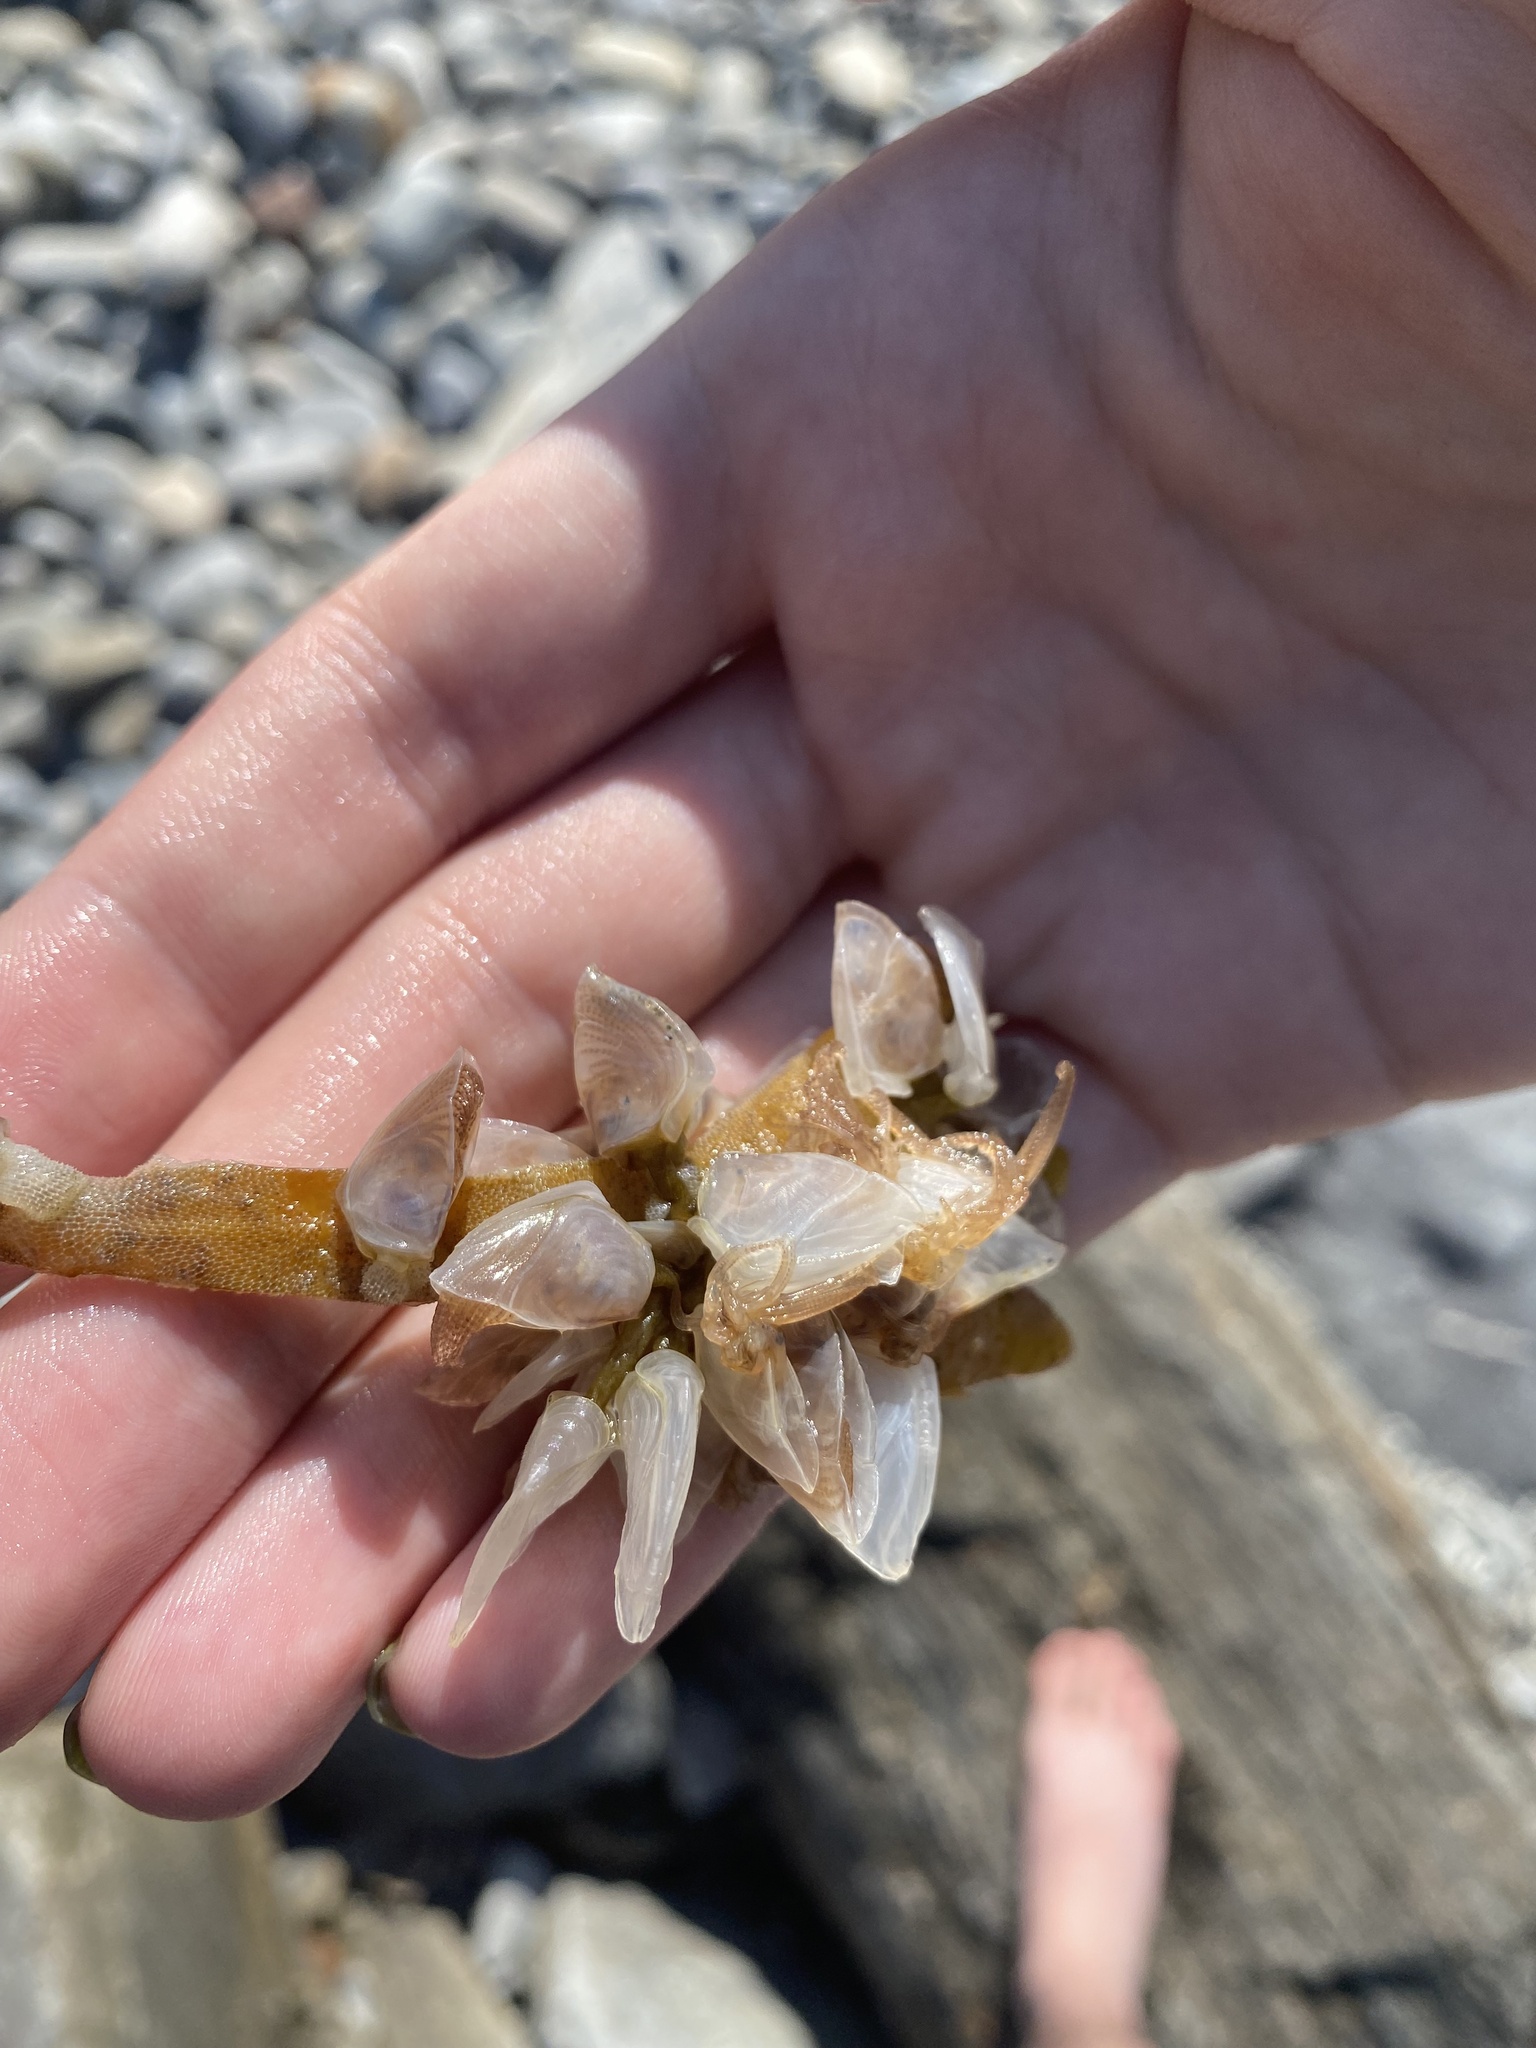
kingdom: Animalia
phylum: Arthropoda
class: Maxillopoda
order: Pedunculata
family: Lepadidae
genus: Dosima
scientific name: Dosima fascicularis
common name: Buoy barnacle
